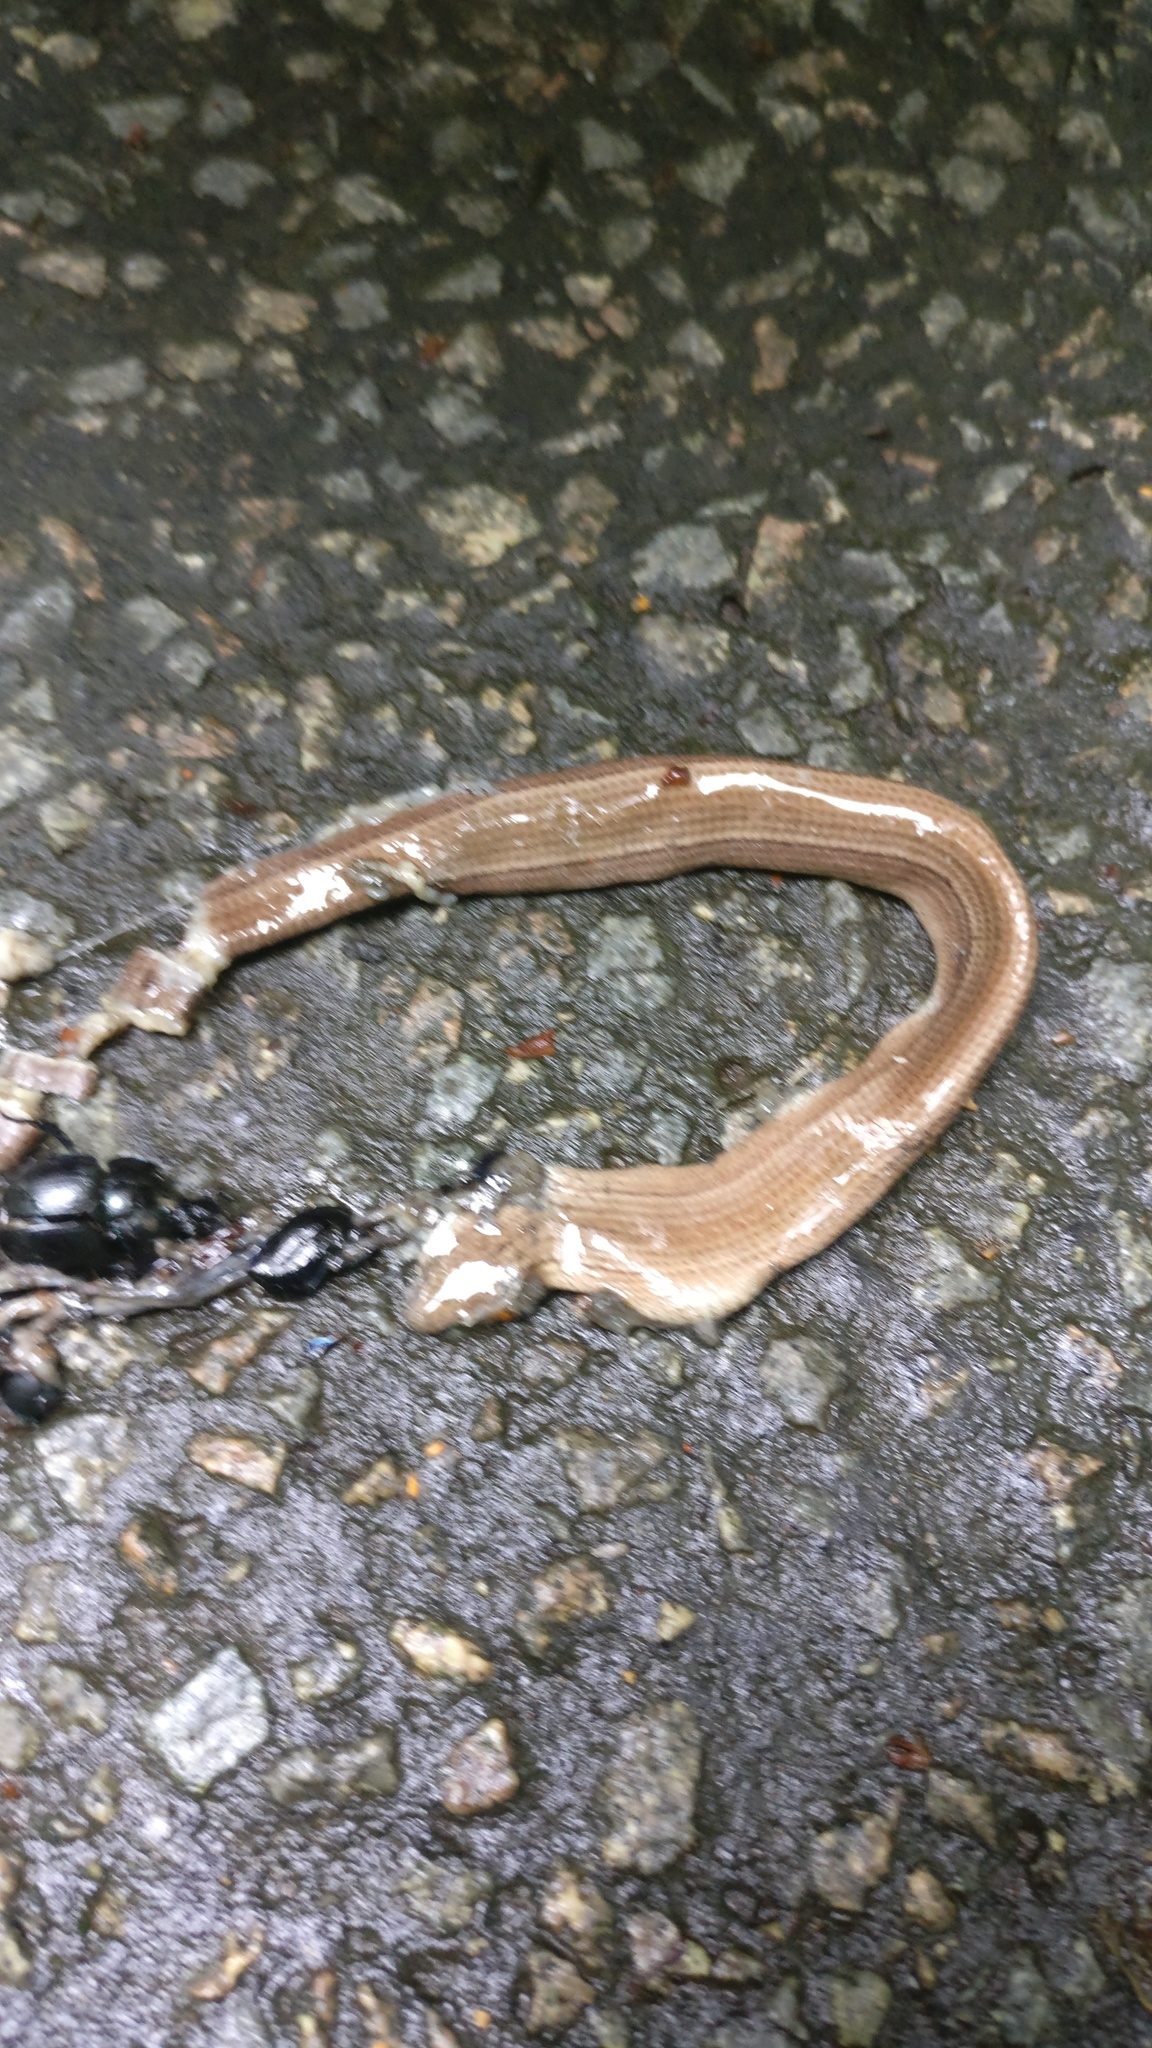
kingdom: Animalia
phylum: Chordata
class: Squamata
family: Anguidae
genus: Anguis
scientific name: Anguis fragilis
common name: Slow worm
